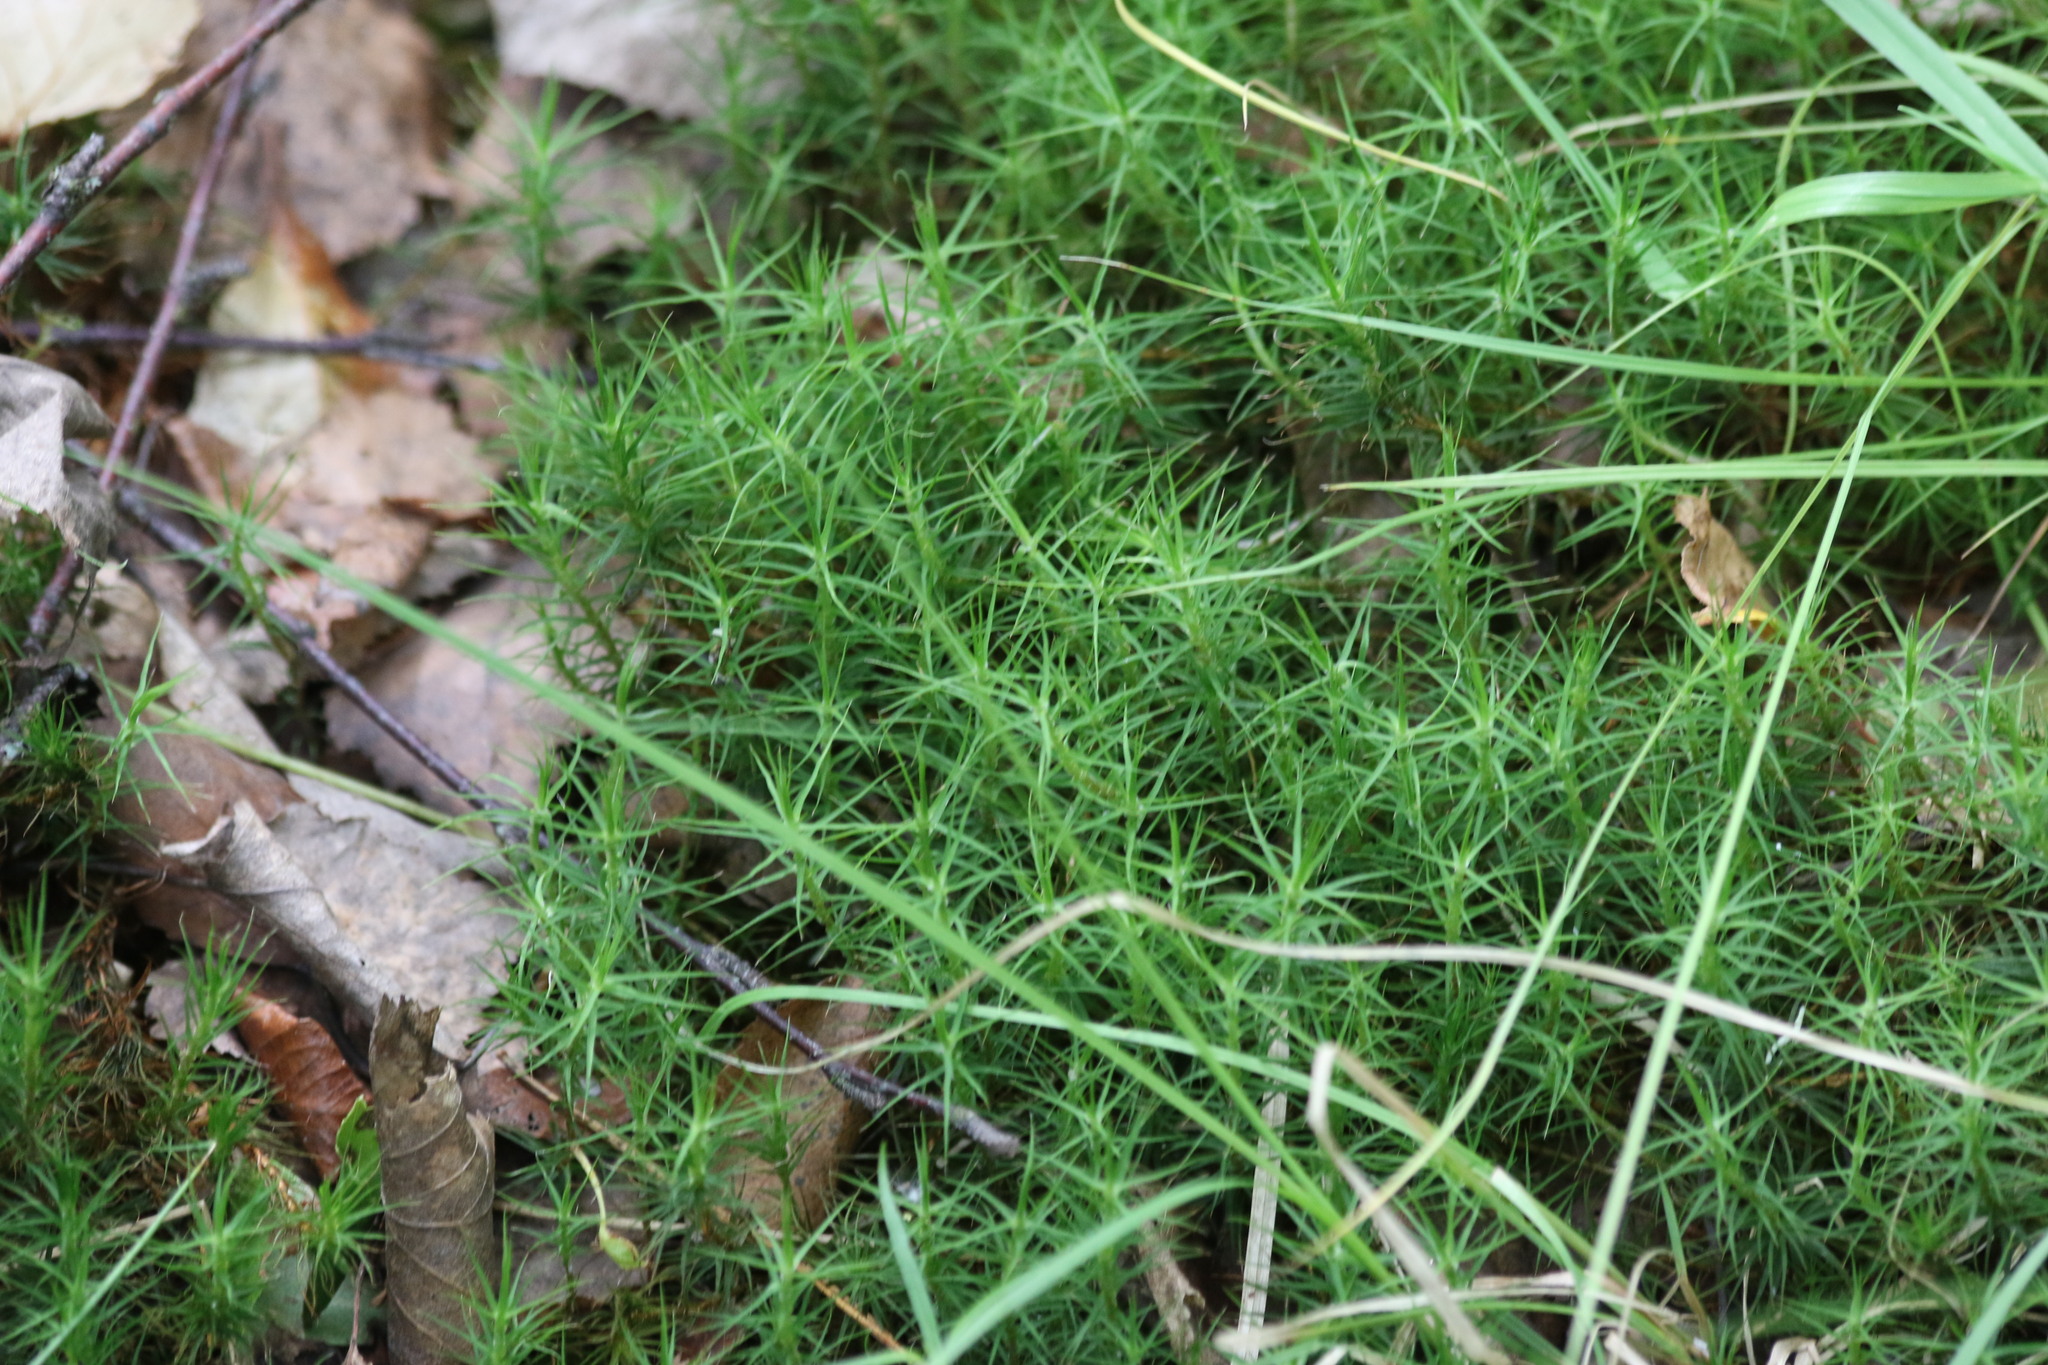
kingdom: Plantae
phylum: Bryophyta
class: Polytrichopsida
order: Polytrichales
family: Polytrichaceae
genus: Polytrichum
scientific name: Polytrichum commune
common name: Common haircap
